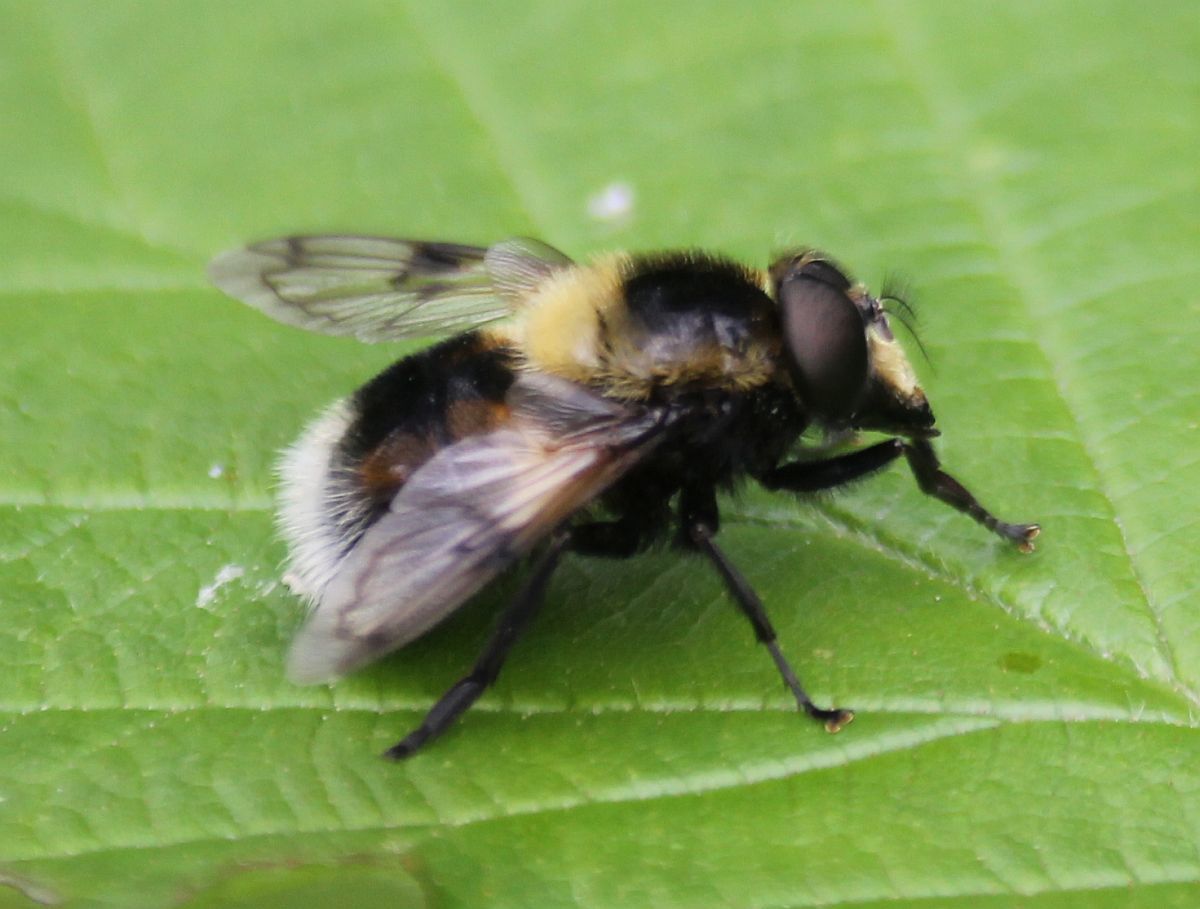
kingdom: Animalia
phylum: Arthropoda
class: Insecta
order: Diptera
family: Syrphidae
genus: Volucella
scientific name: Volucella bombylans
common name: Bumble bee hover fly
